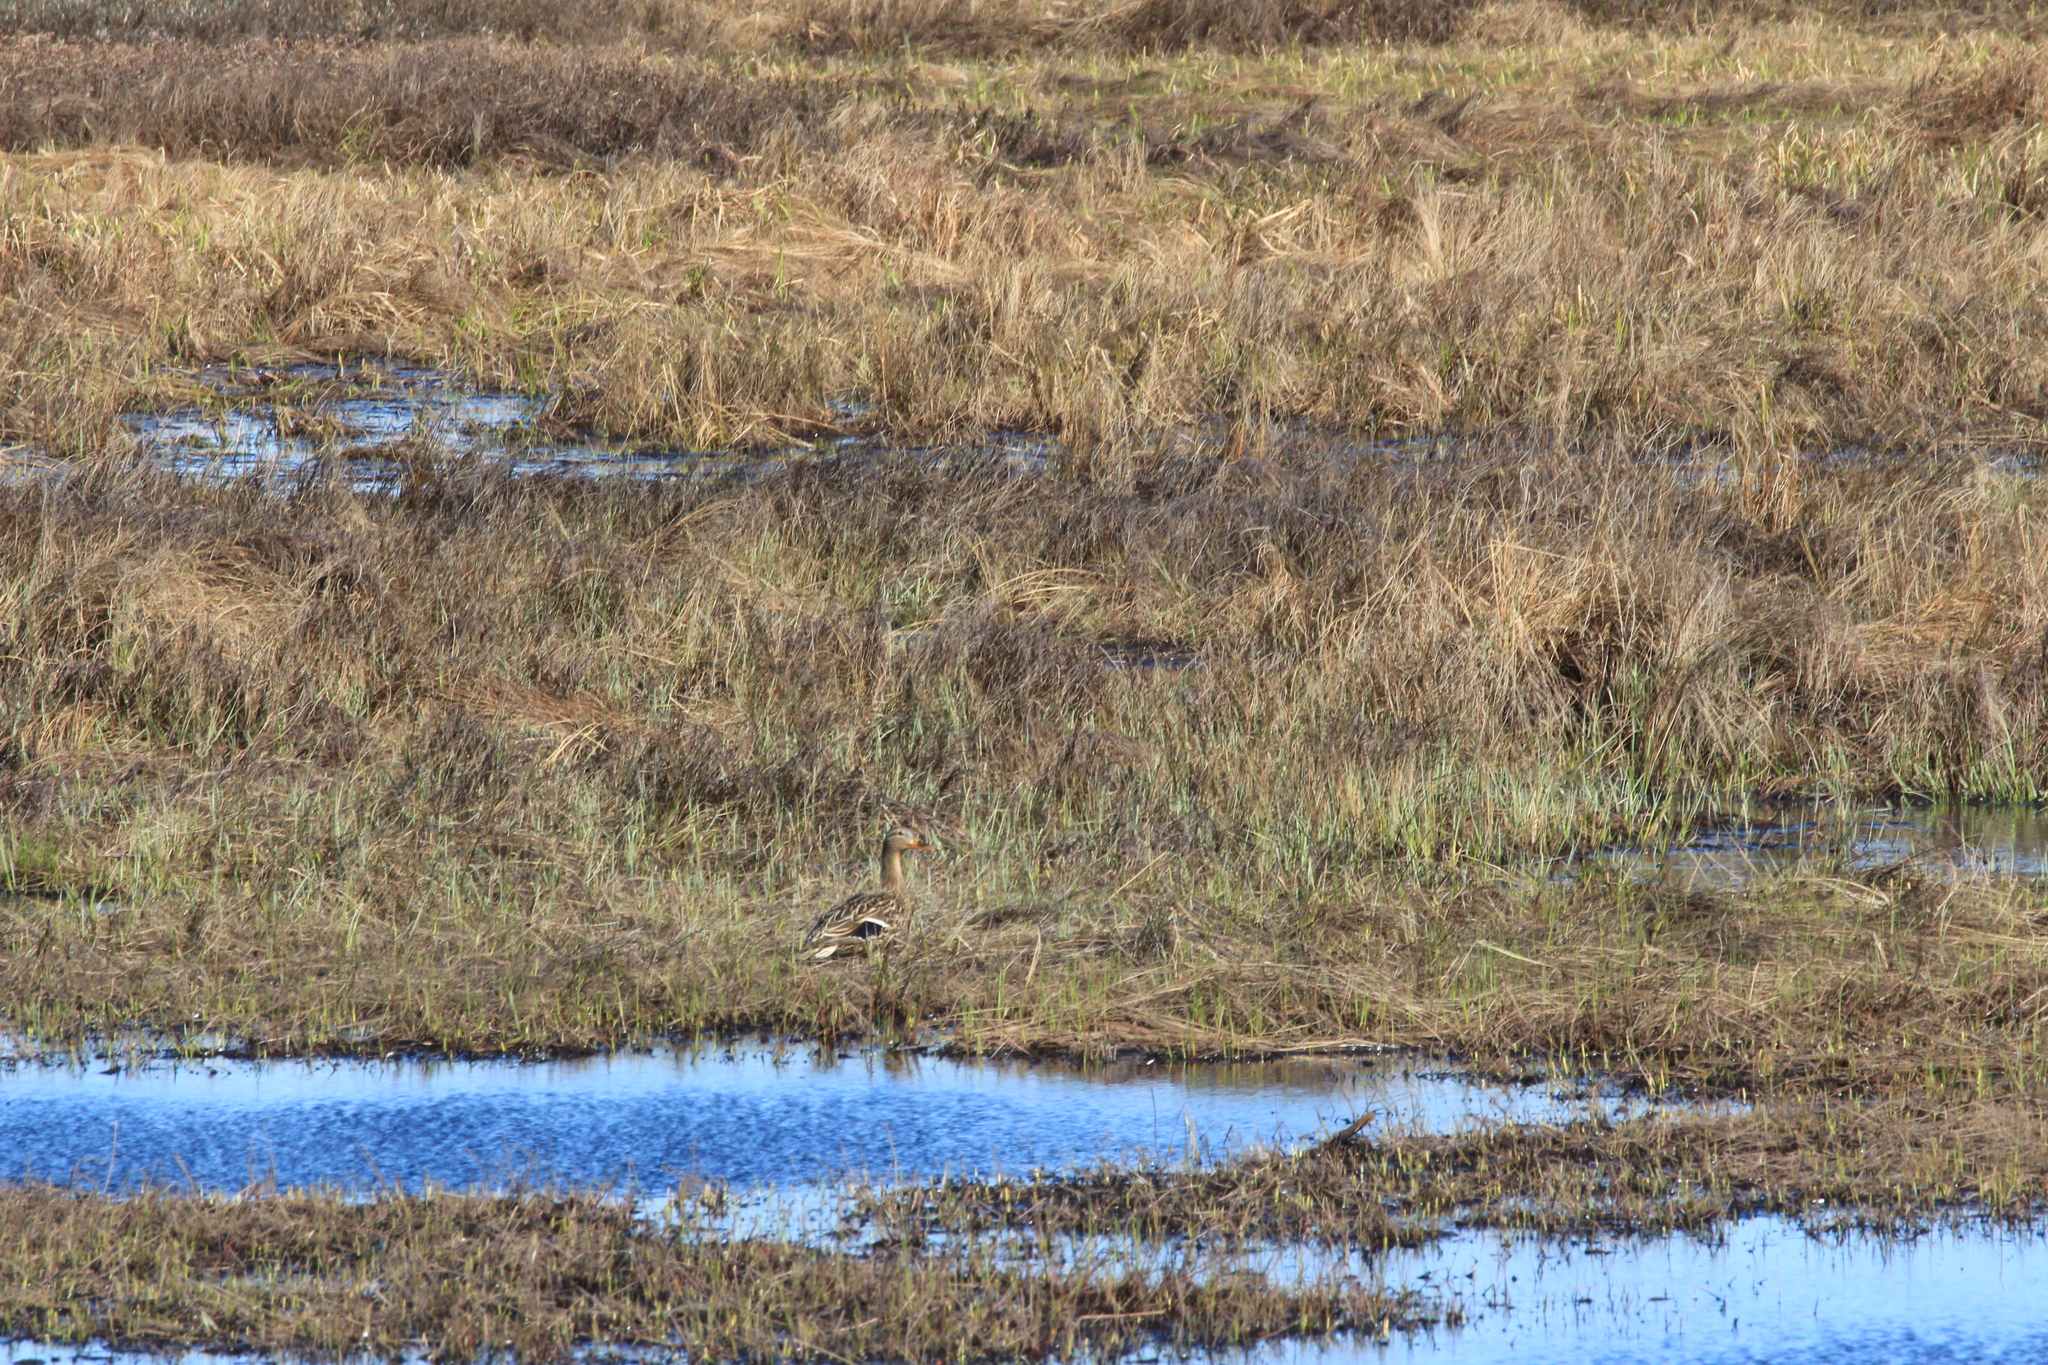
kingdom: Animalia
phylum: Chordata
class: Aves
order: Anseriformes
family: Anatidae
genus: Anas
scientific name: Anas platyrhynchos
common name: Mallard
